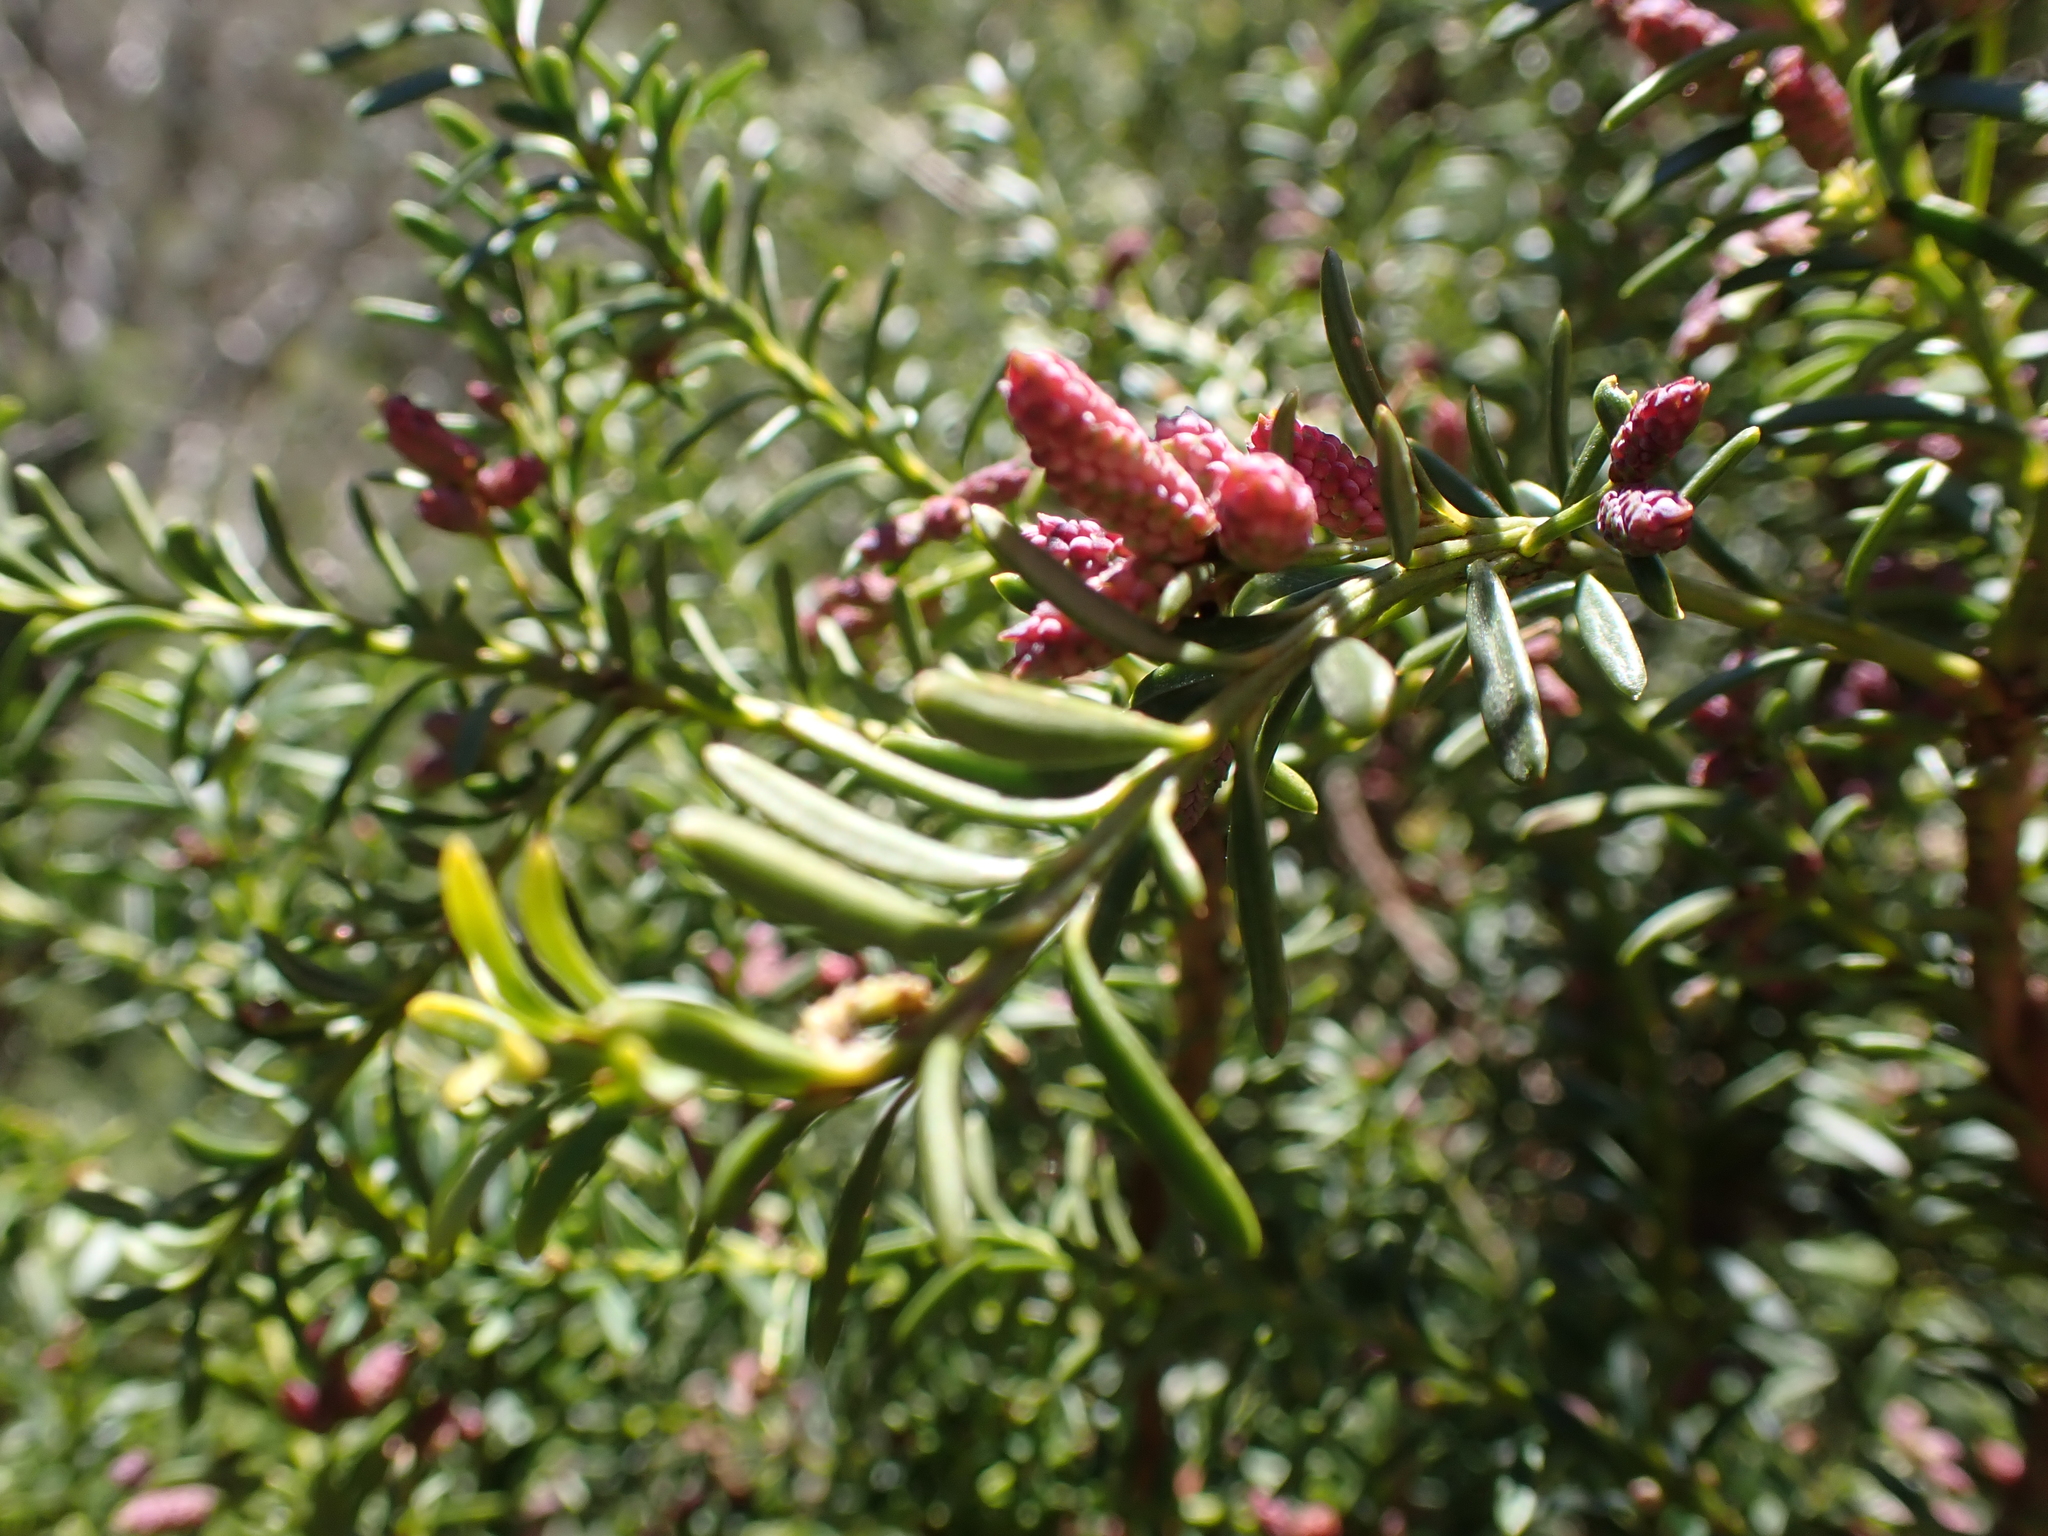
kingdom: Plantae
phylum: Tracheophyta
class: Pinopsida
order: Pinales
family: Podocarpaceae
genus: Podocarpus
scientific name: Podocarpus lawrencei
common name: Mountain plum pine
